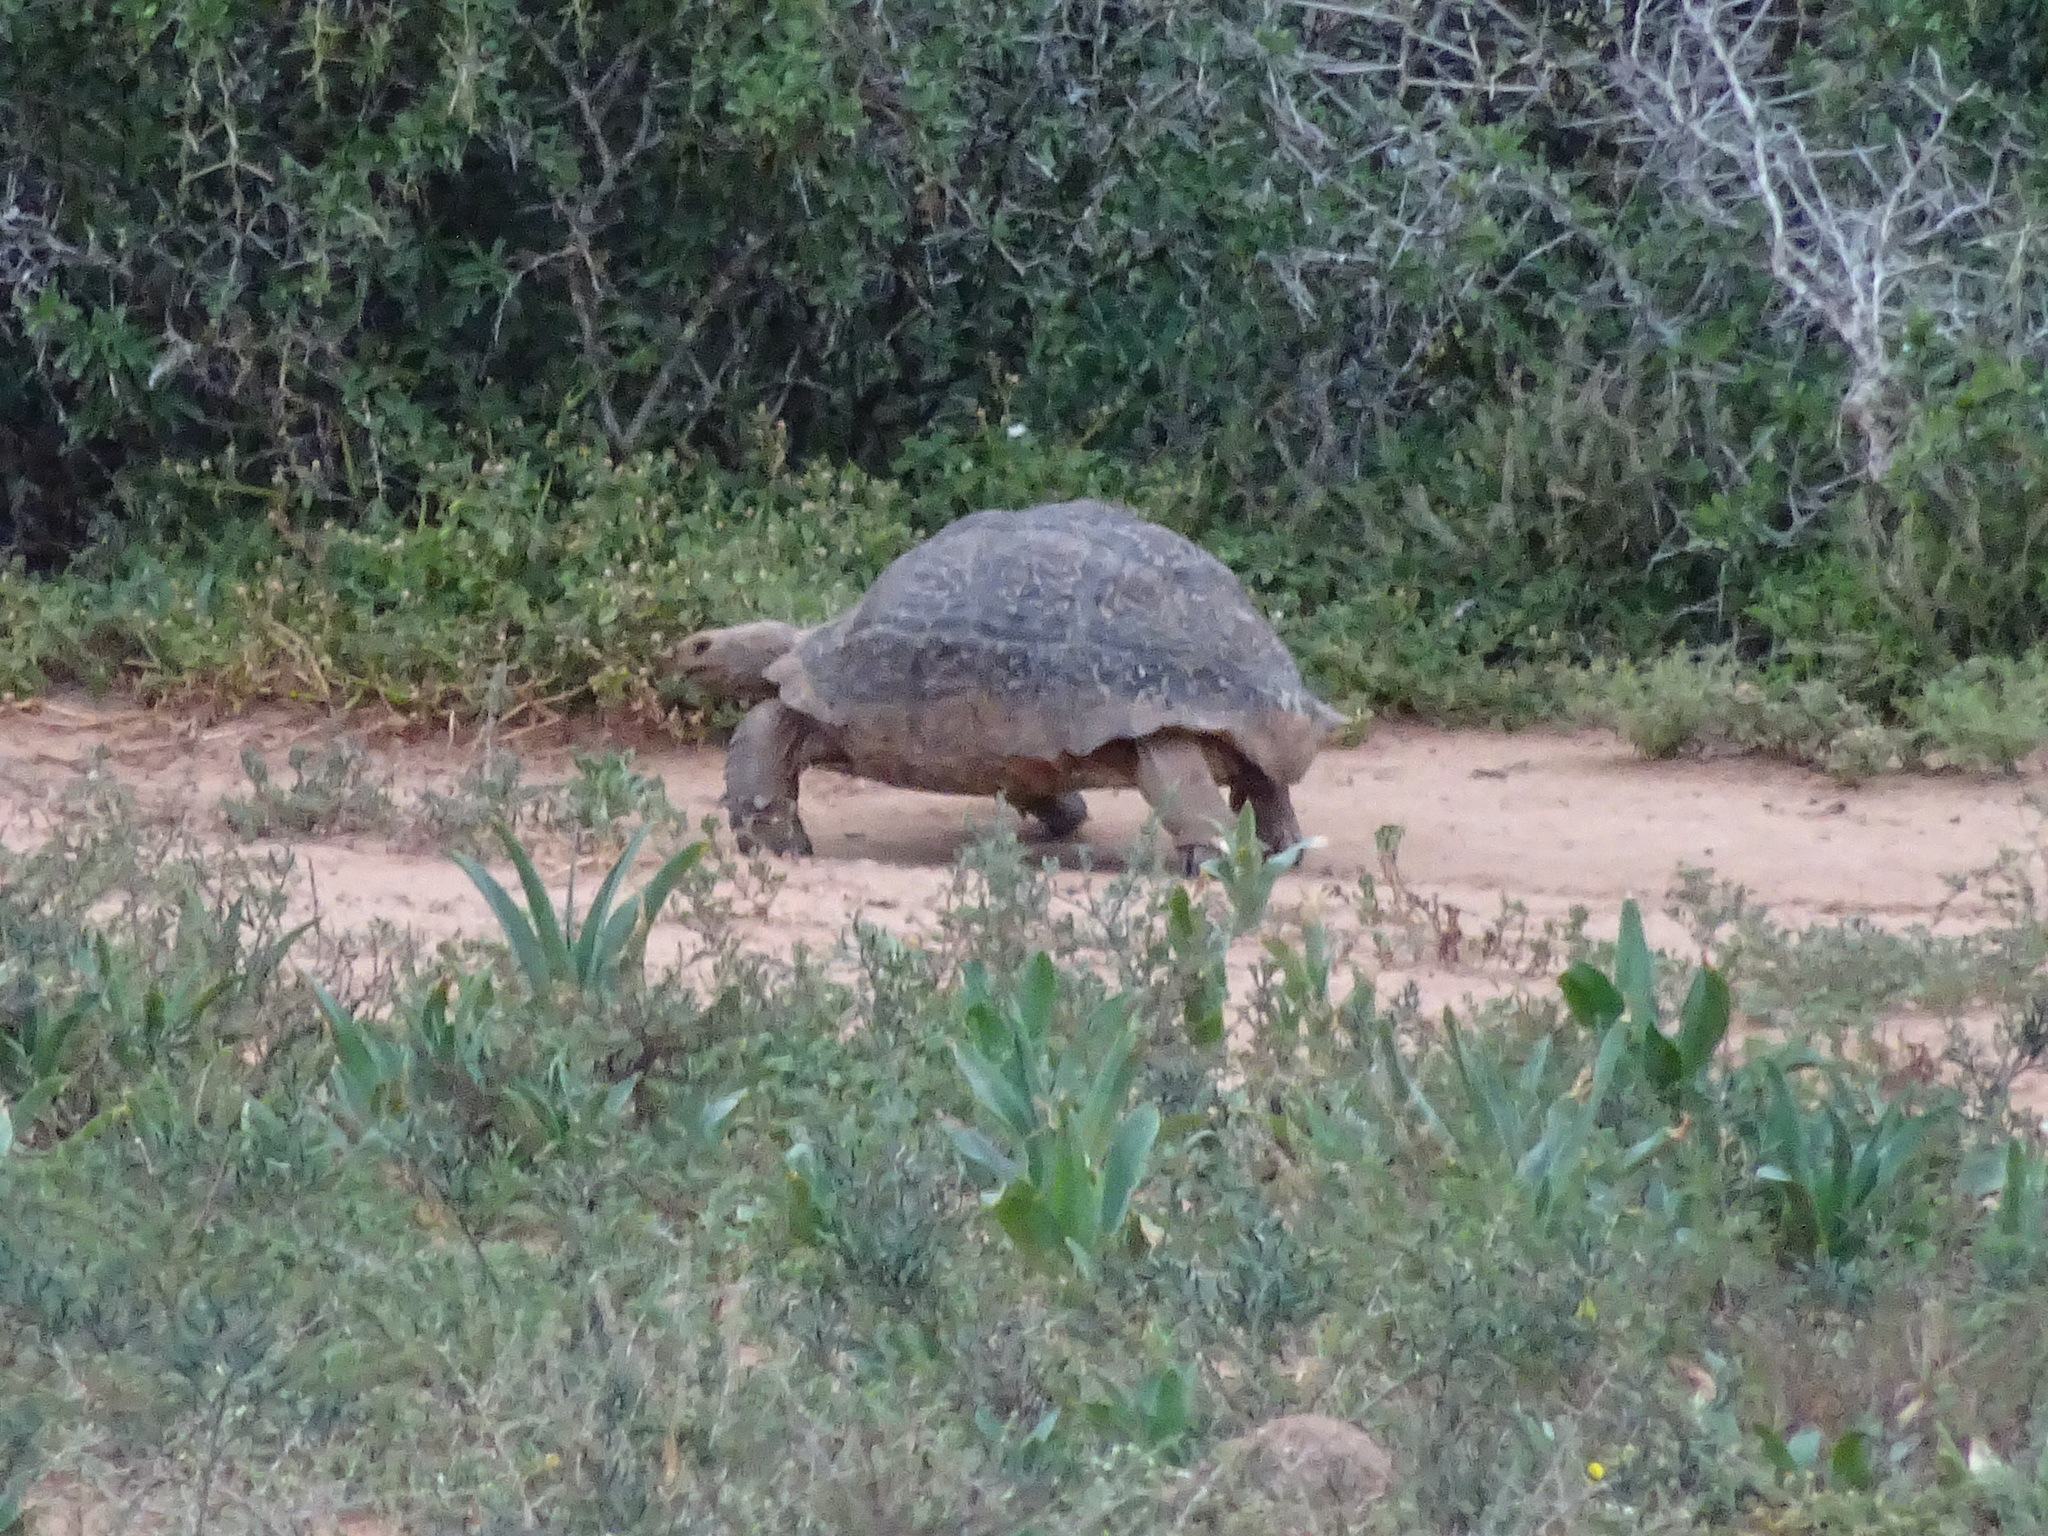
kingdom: Animalia
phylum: Chordata
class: Testudines
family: Testudinidae
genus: Stigmochelys
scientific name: Stigmochelys pardalis
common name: Leopard tortoise
